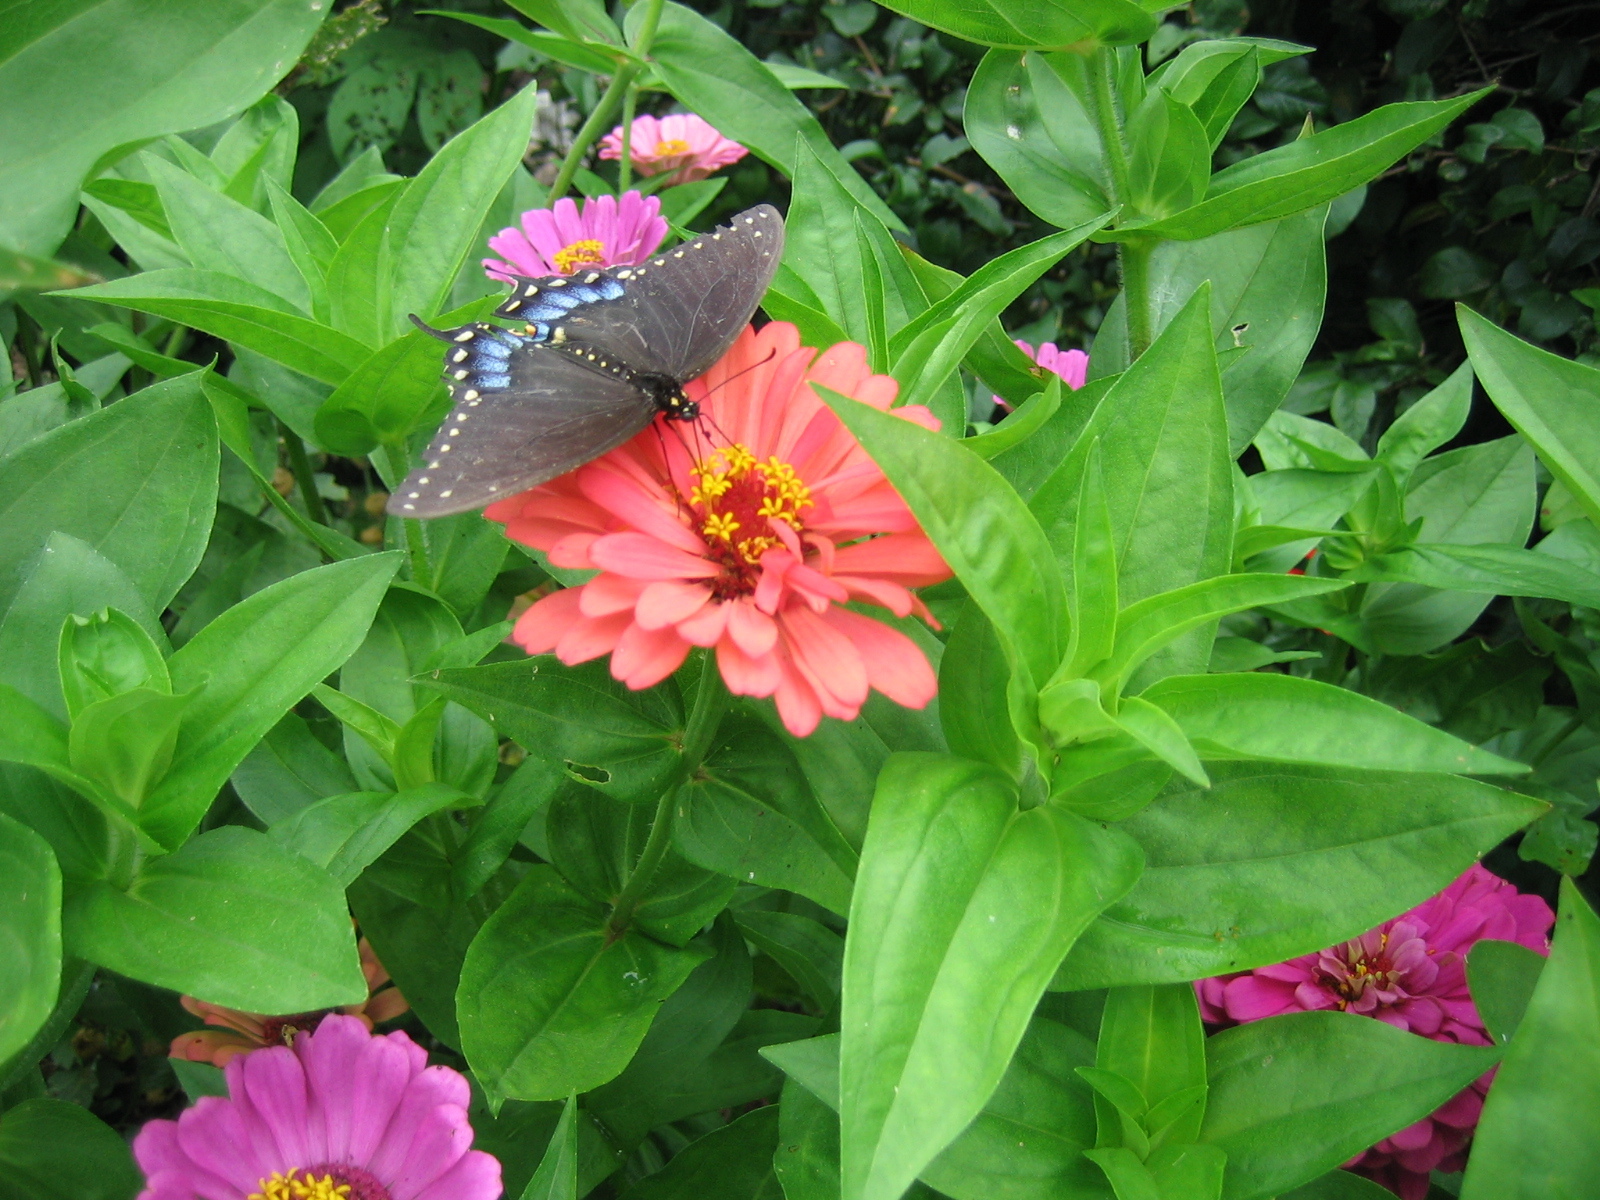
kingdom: Animalia
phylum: Arthropoda
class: Insecta
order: Lepidoptera
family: Papilionidae
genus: Papilio
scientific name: Papilio troilus
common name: Spicebush swallowtail
